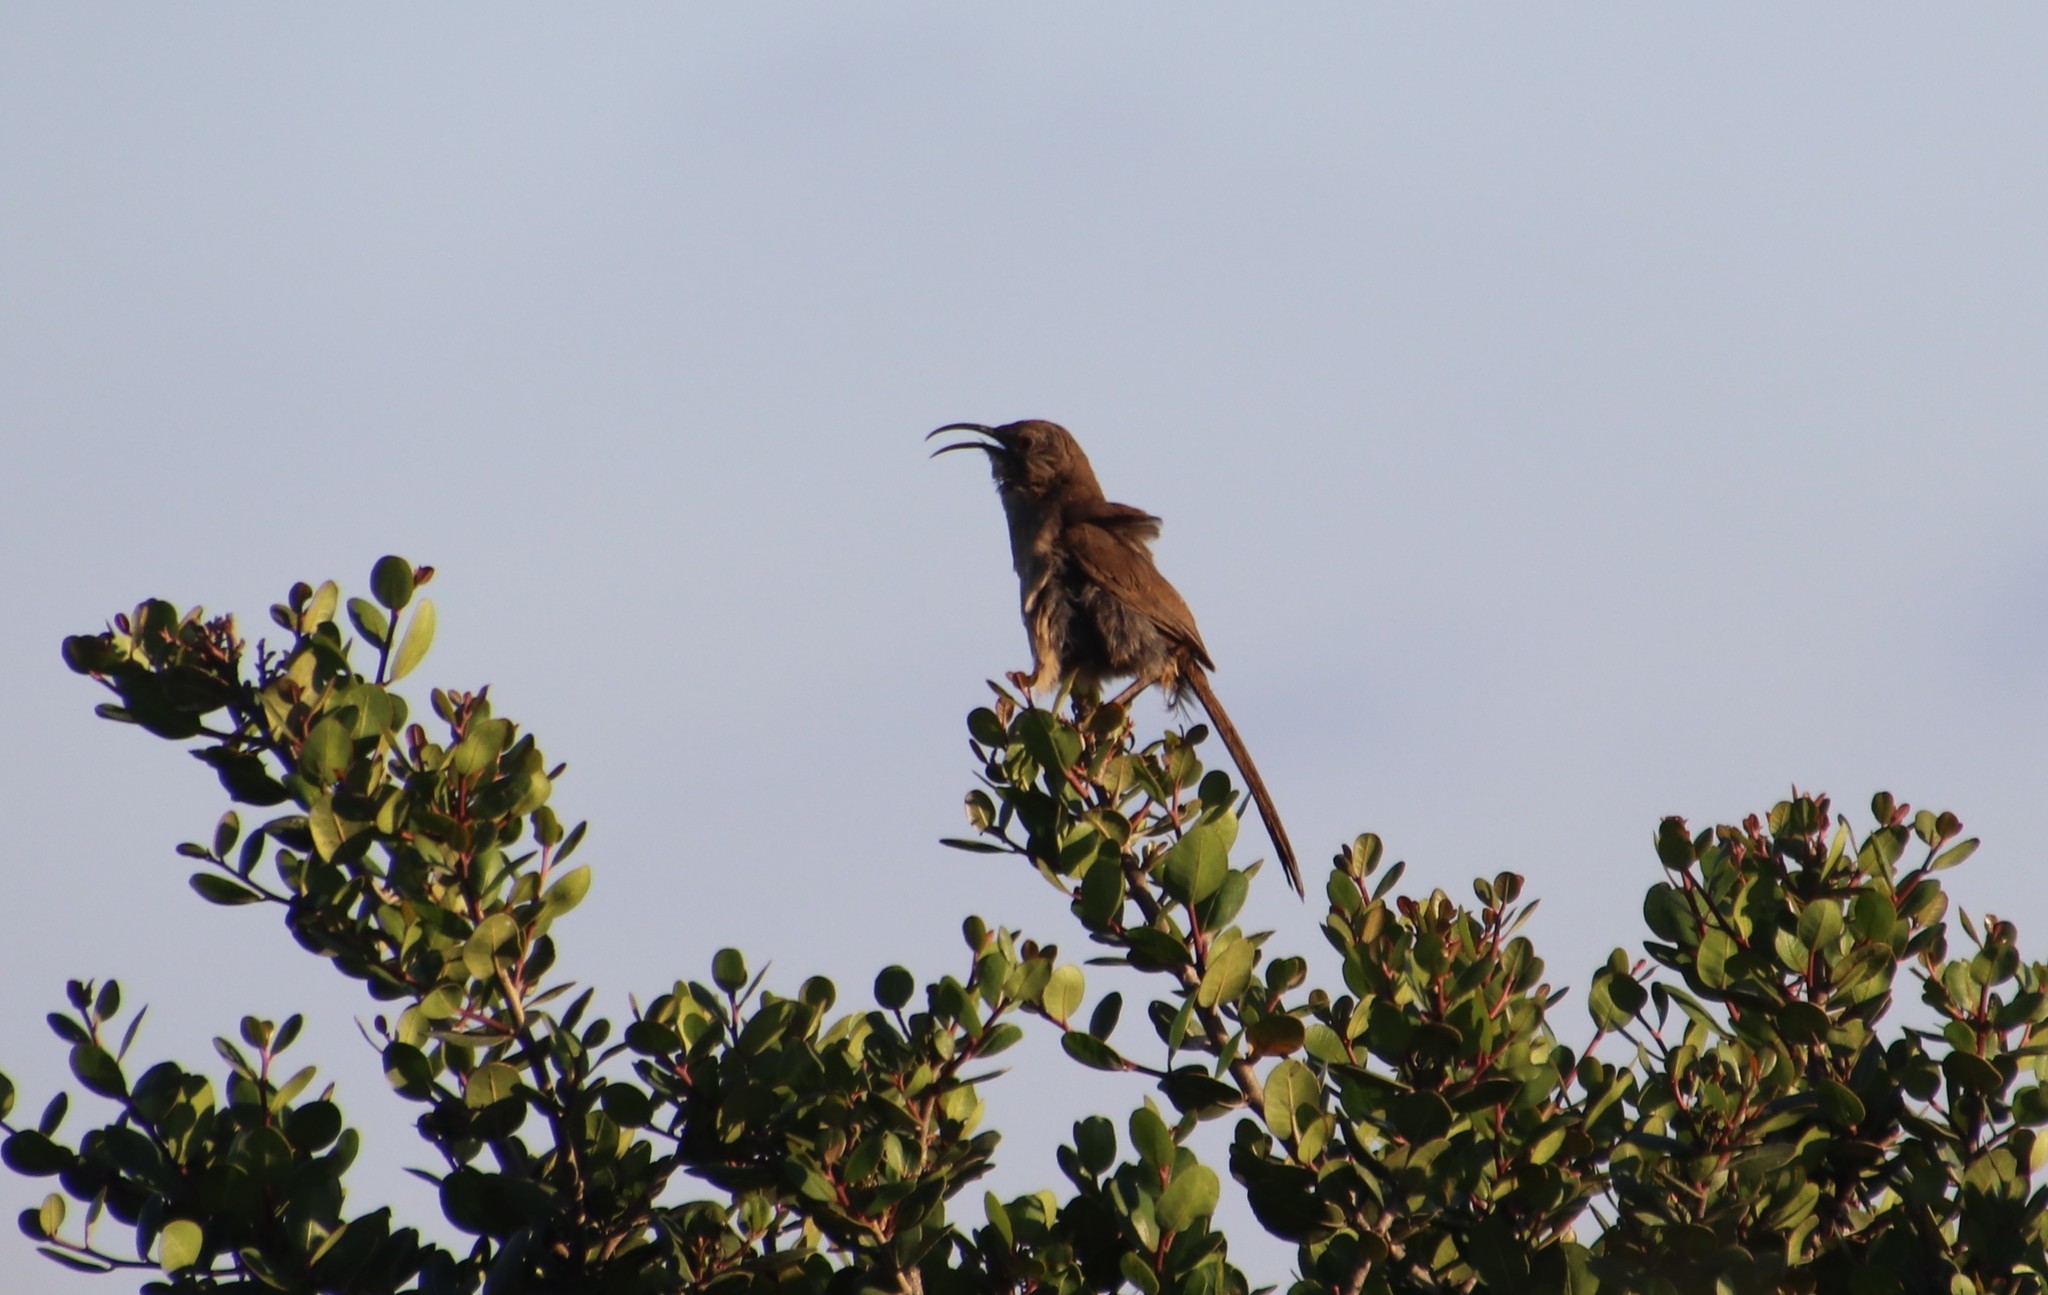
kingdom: Animalia
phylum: Chordata
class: Aves
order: Passeriformes
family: Mimidae
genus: Toxostoma
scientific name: Toxostoma redivivum
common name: California thrasher
